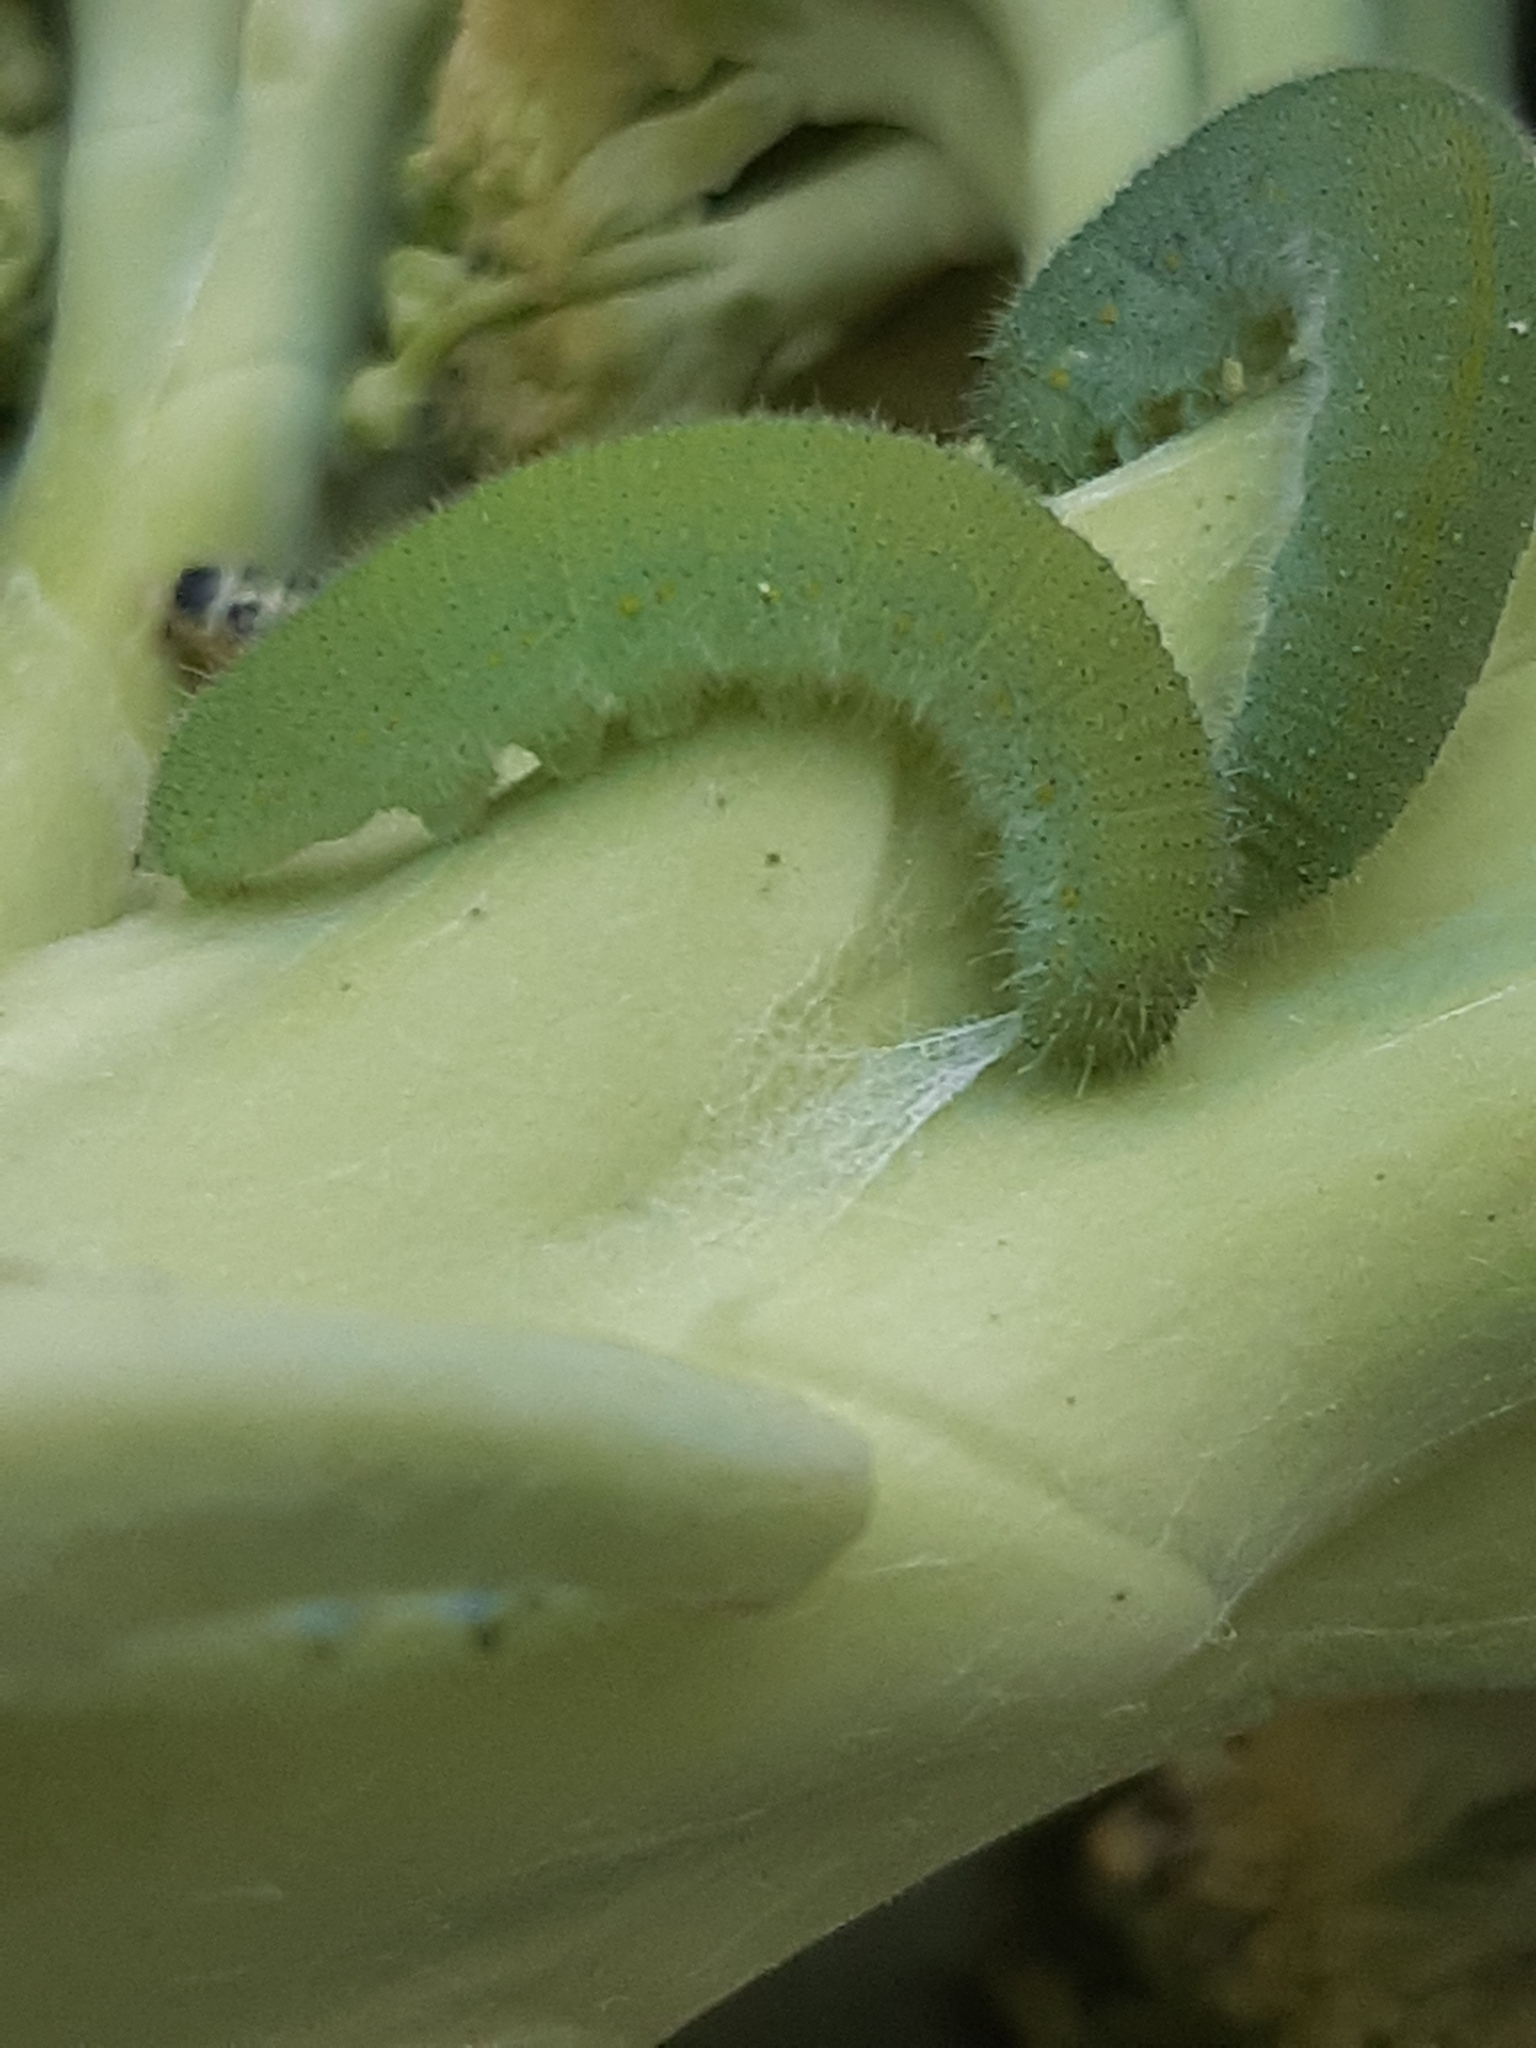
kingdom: Animalia
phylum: Arthropoda
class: Insecta
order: Lepidoptera
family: Pieridae
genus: Pieris
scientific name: Pieris rapae
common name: Small white
